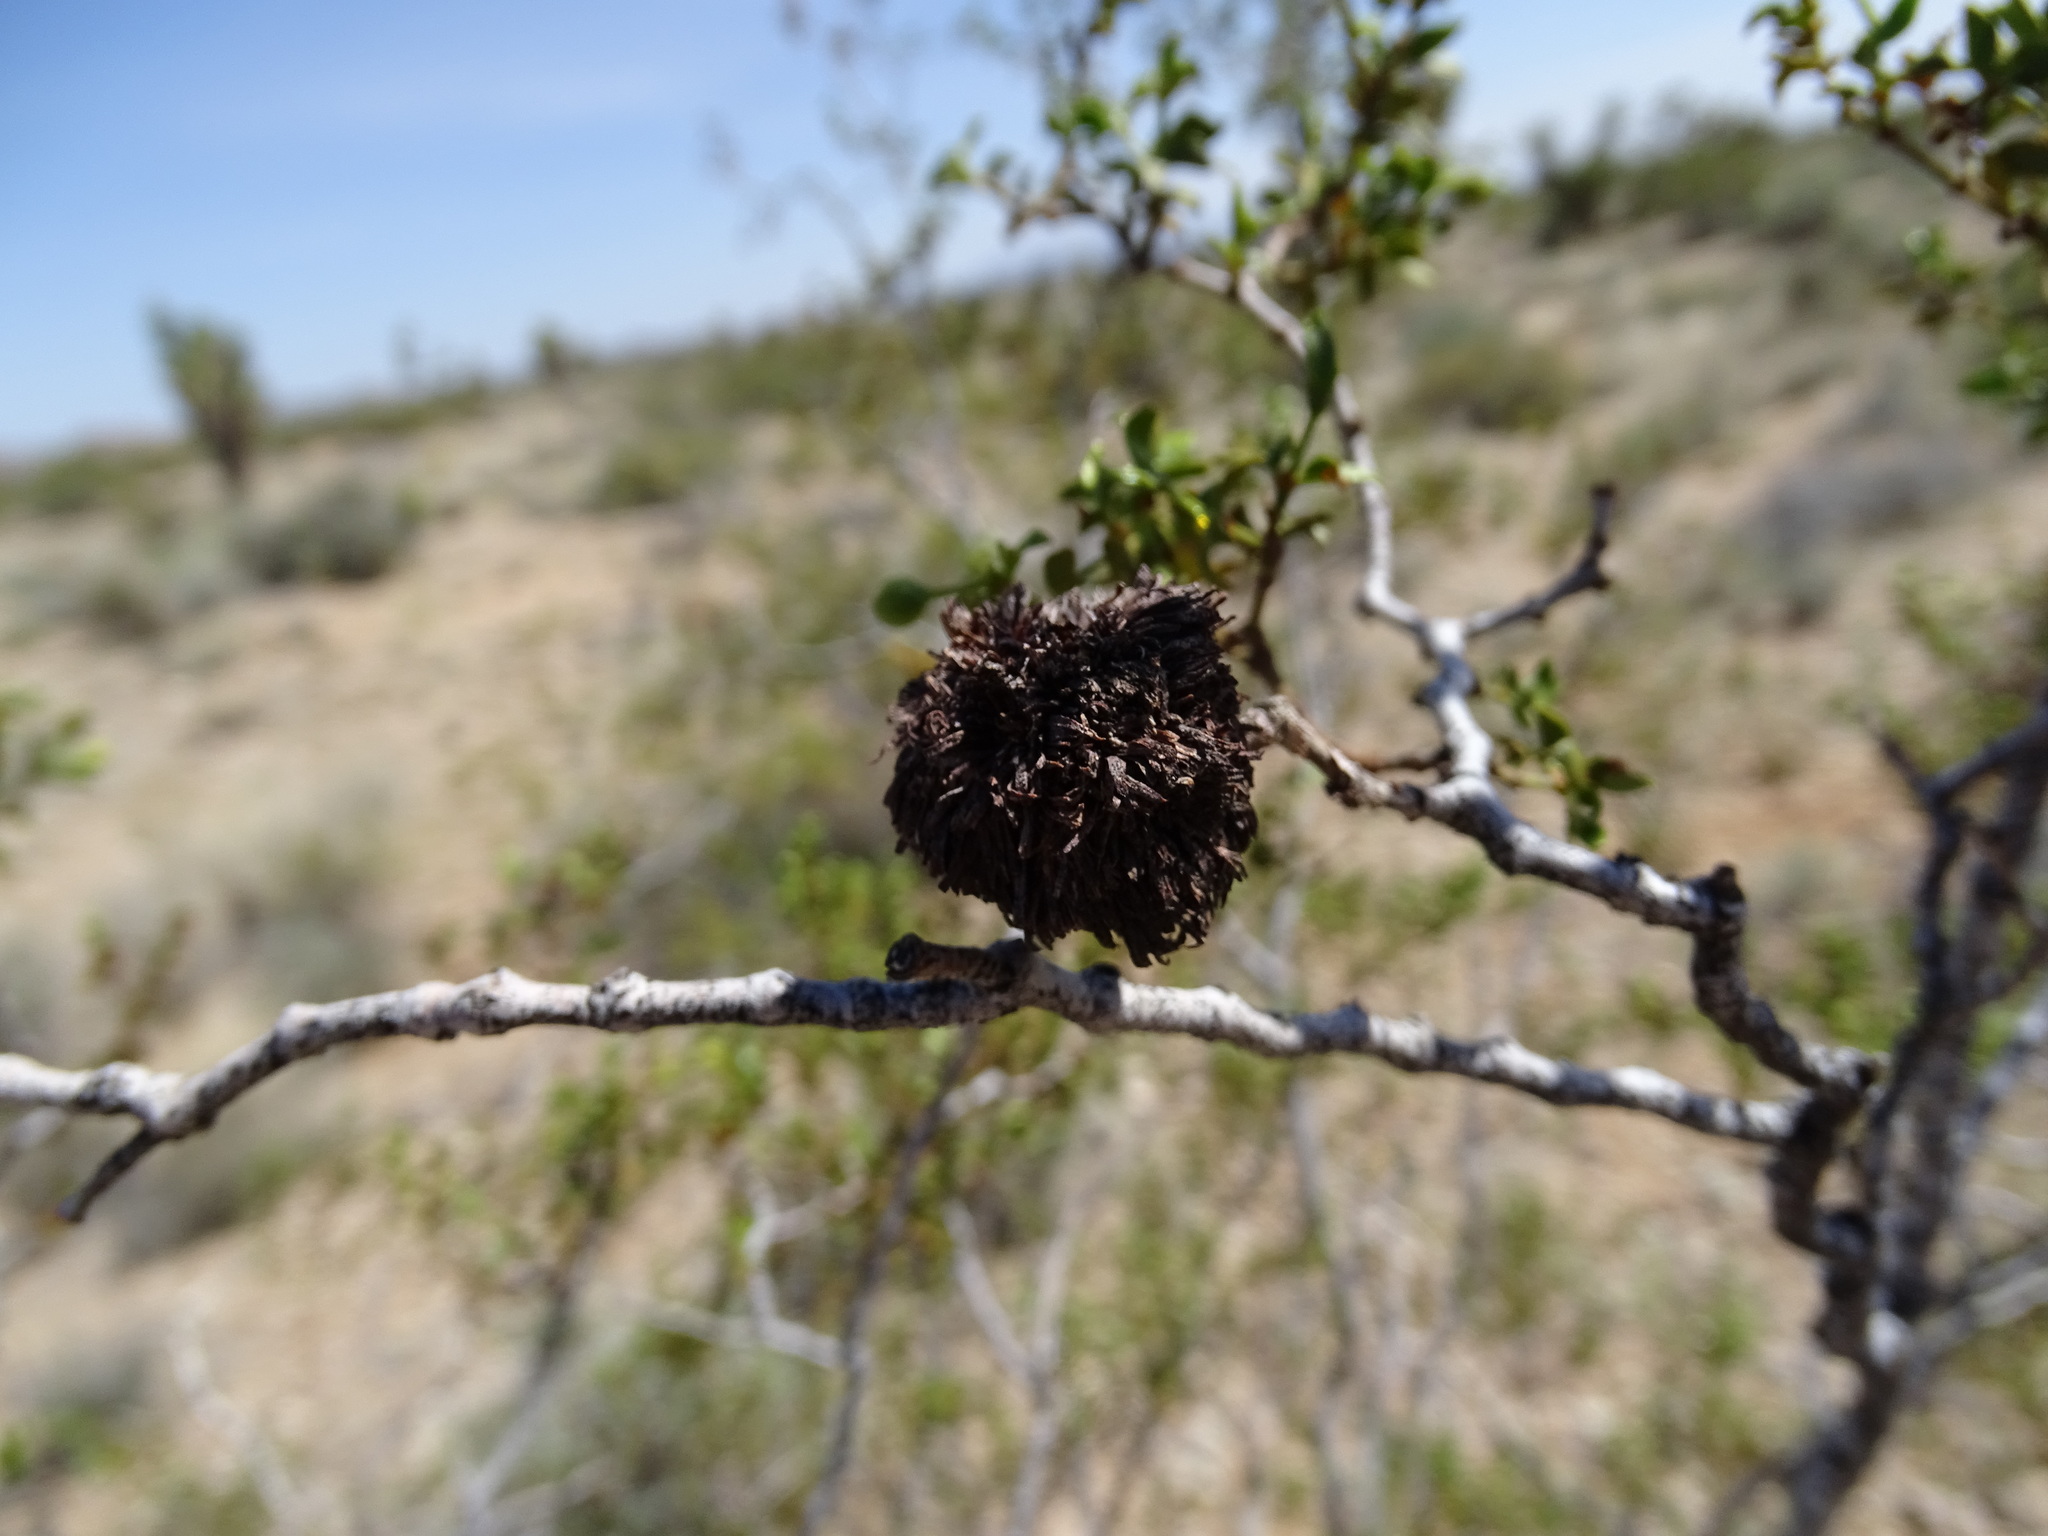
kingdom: Animalia
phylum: Arthropoda
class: Insecta
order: Diptera
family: Cecidomyiidae
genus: Asphondylia
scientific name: Asphondylia auripila
